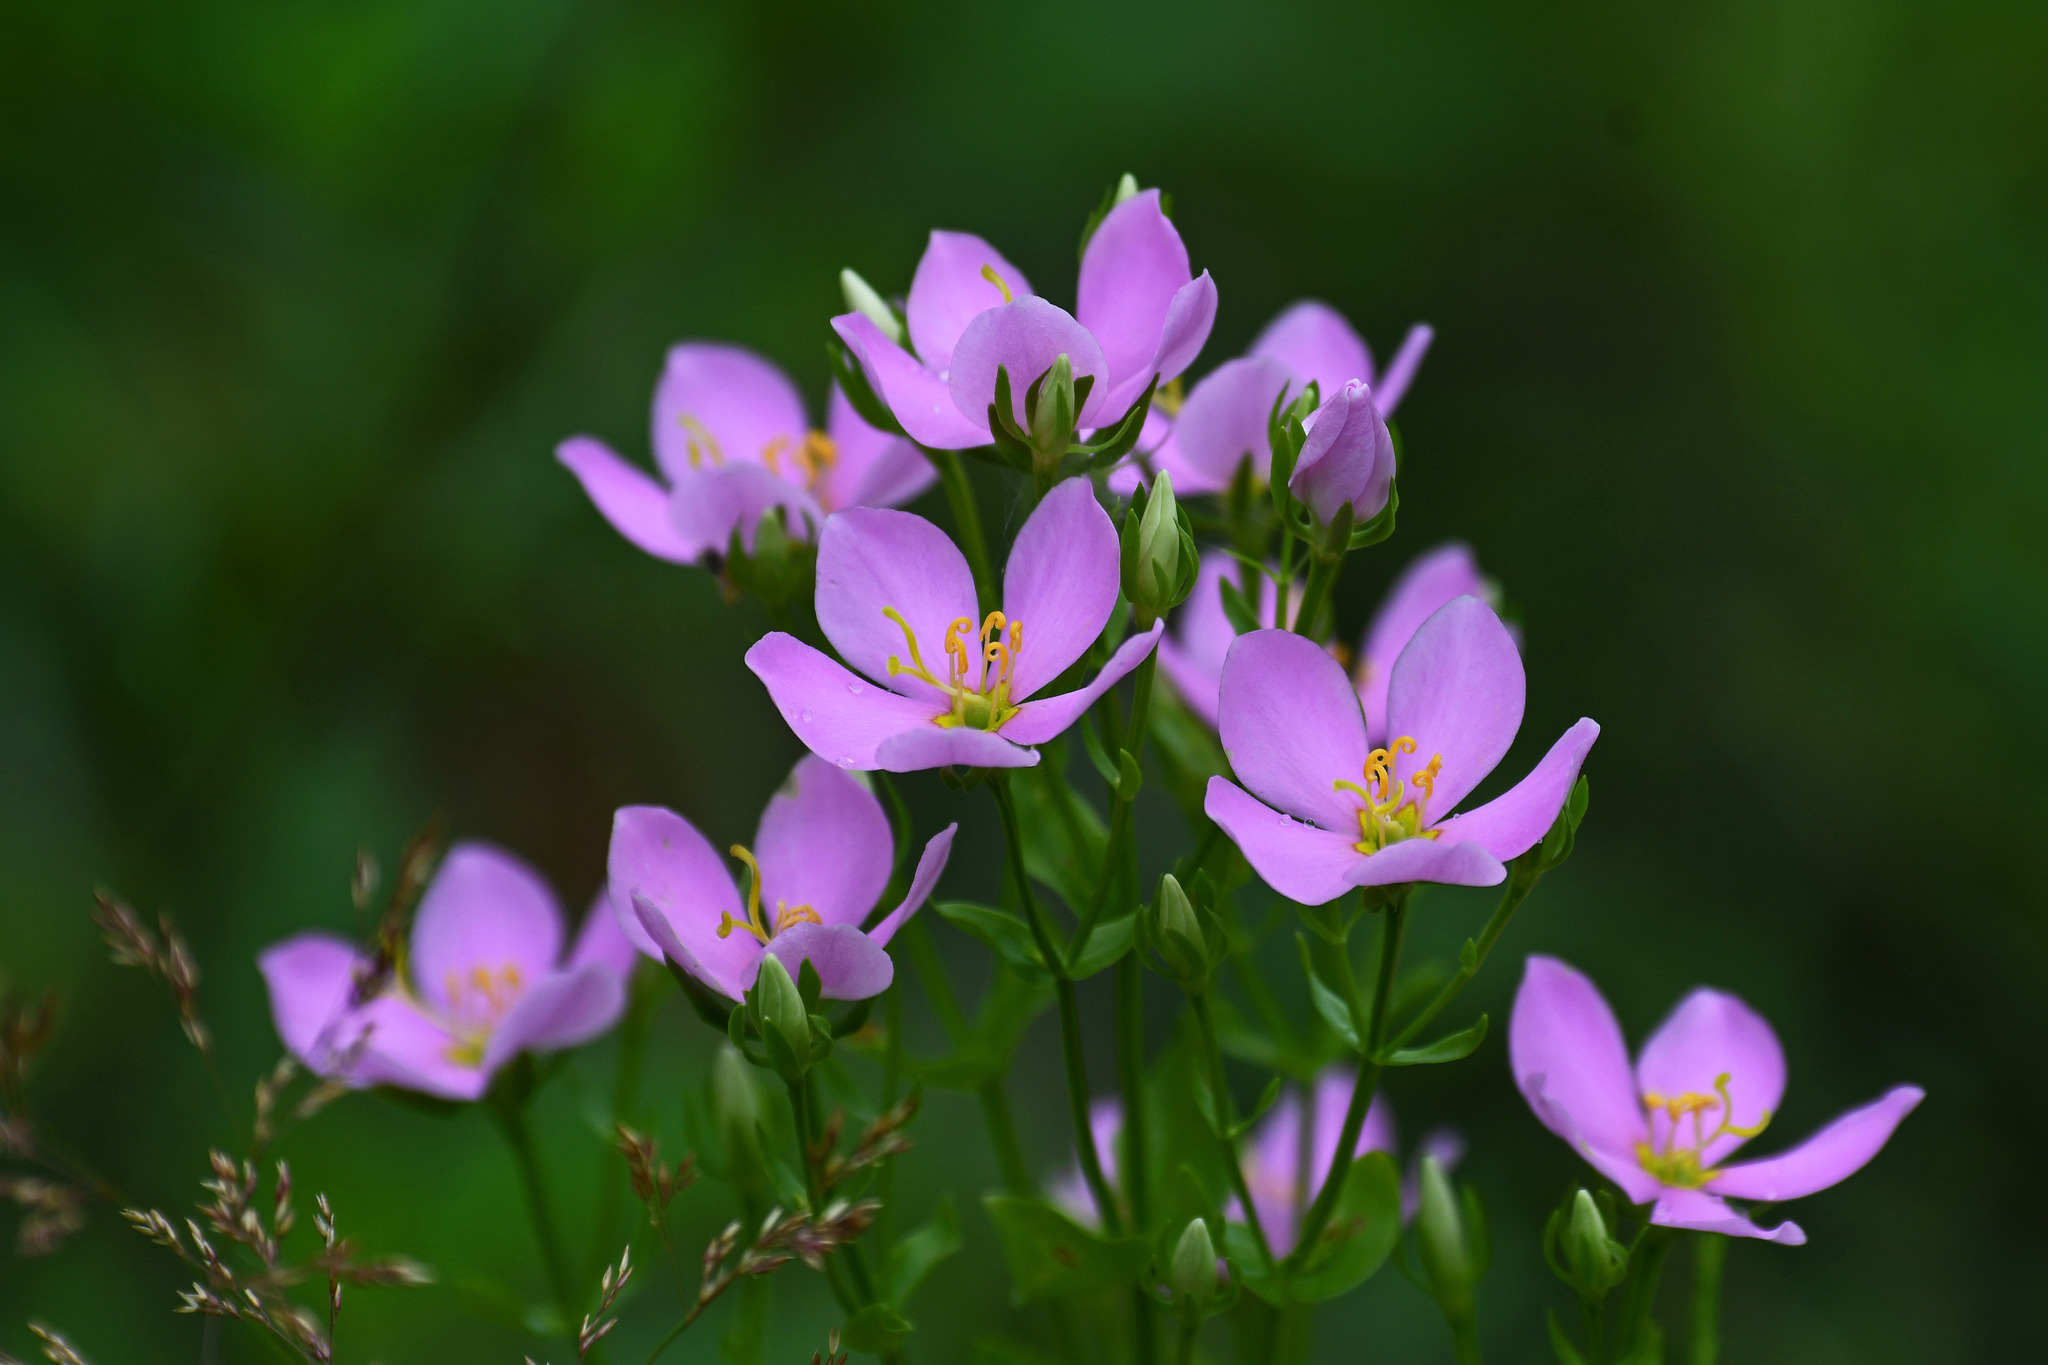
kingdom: Plantae
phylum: Tracheophyta
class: Magnoliopsida
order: Gentianales
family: Gentianaceae
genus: Sabatia
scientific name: Sabatia angularis
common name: Rose-pink
